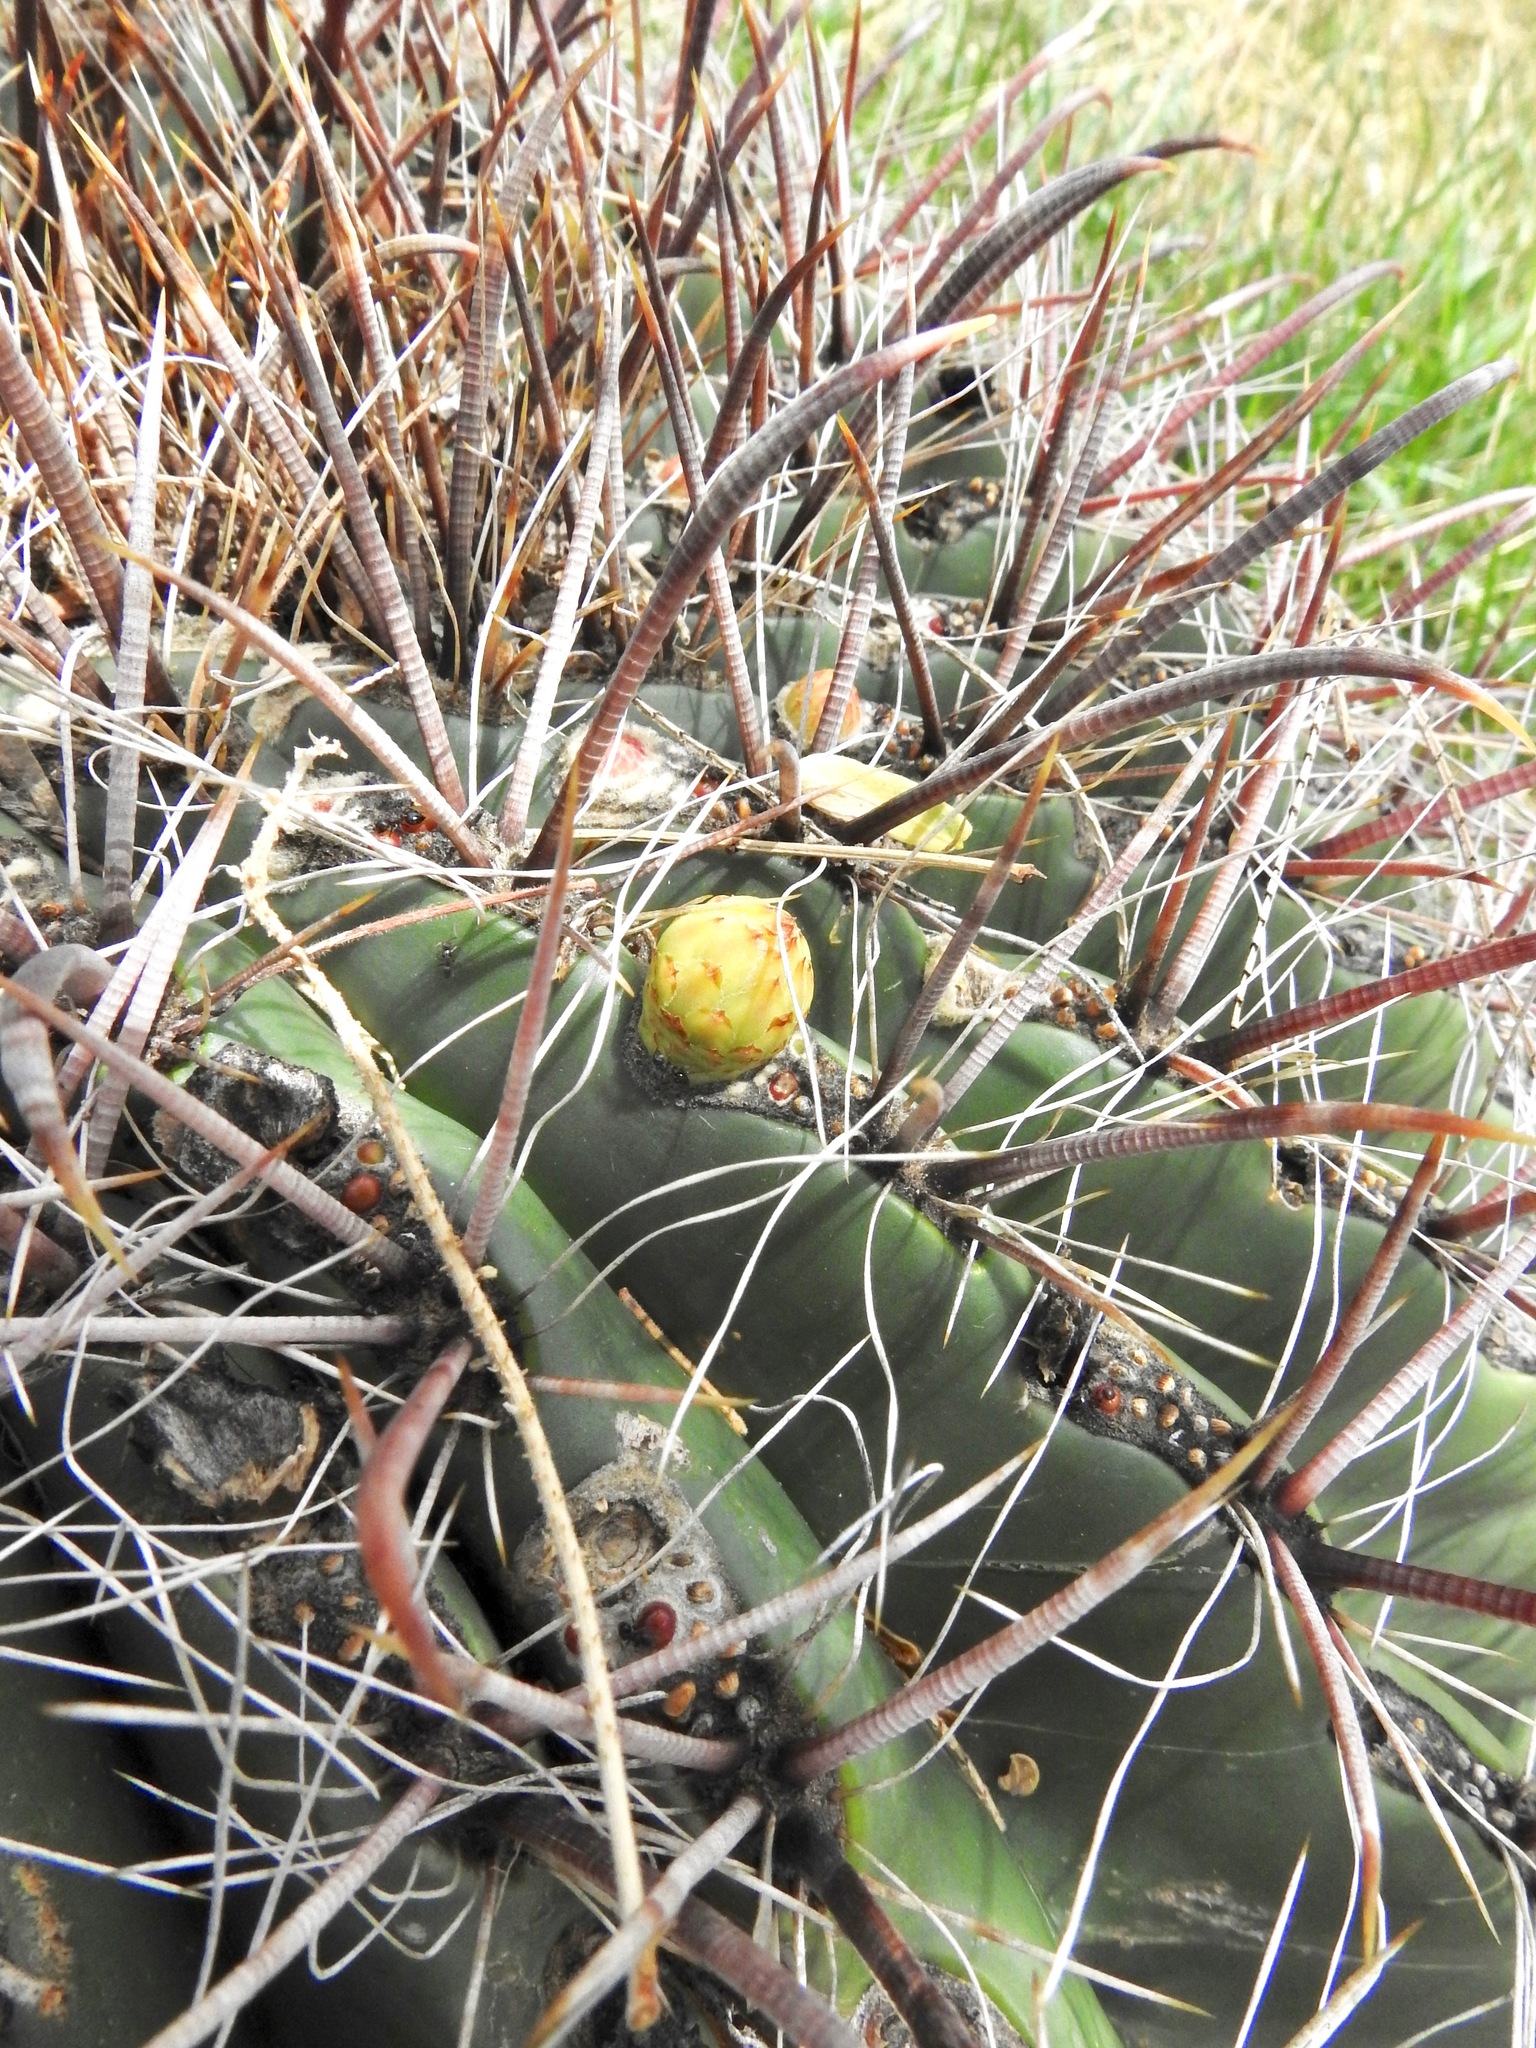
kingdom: Plantae
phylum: Tracheophyta
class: Magnoliopsida
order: Caryophyllales
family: Cactaceae
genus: Ferocactus
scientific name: Ferocactus wislizeni
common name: Candy barrel cactus
